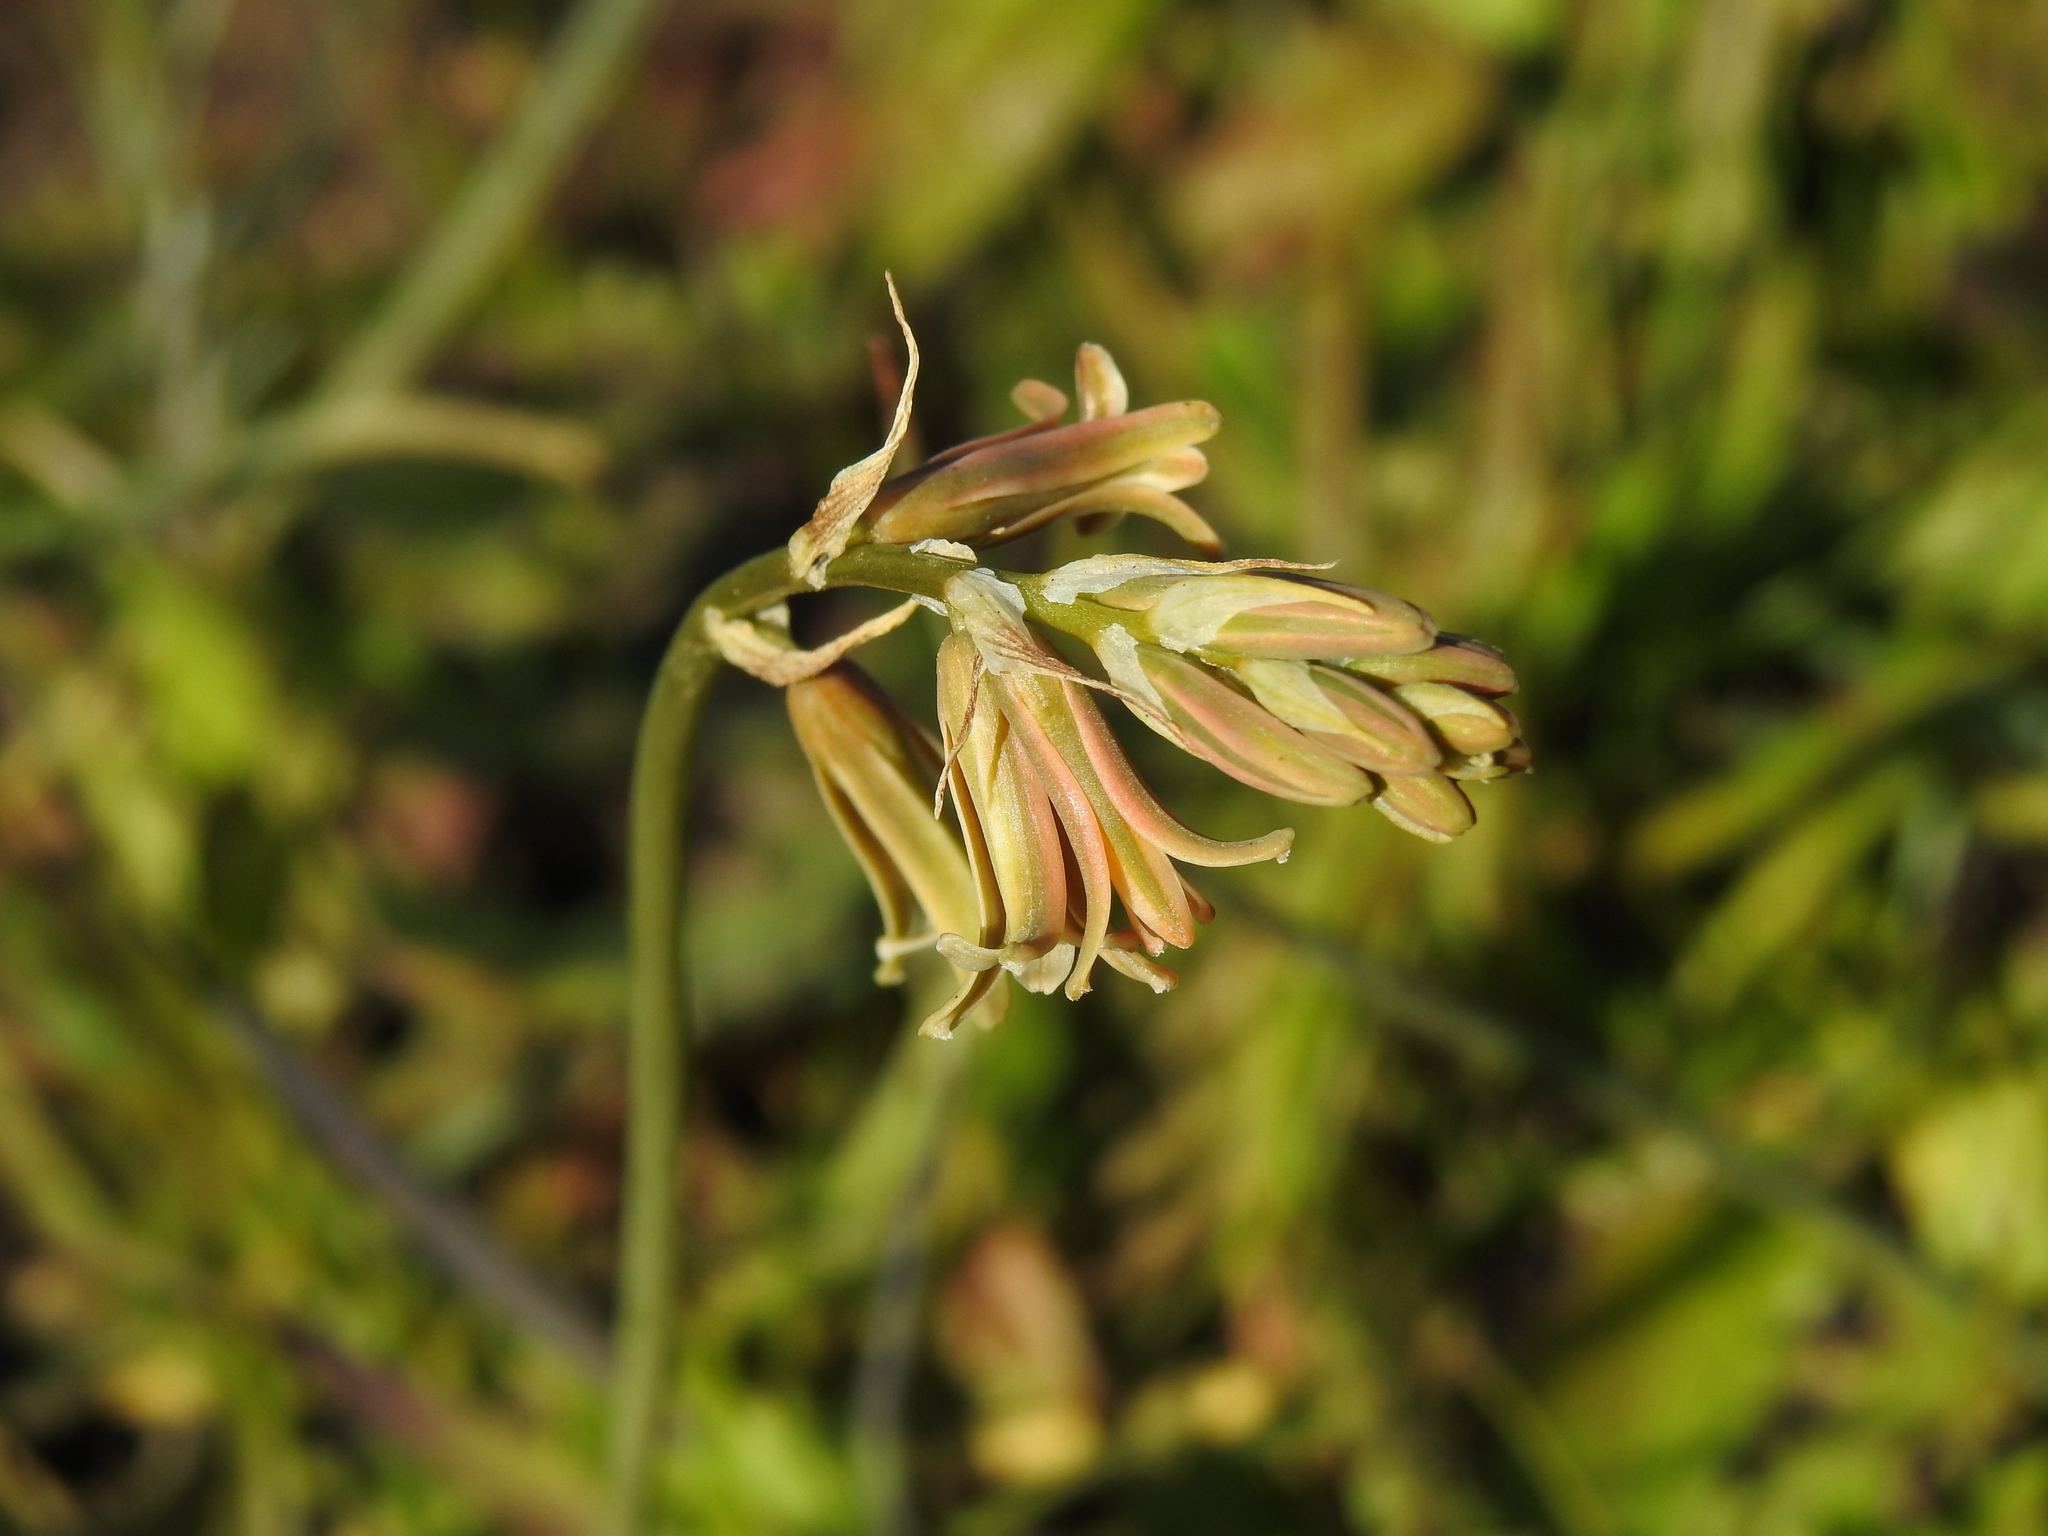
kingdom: Plantae
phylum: Tracheophyta
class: Liliopsida
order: Asparagales
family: Asparagaceae
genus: Dipcadi
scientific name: Dipcadi serotinum
